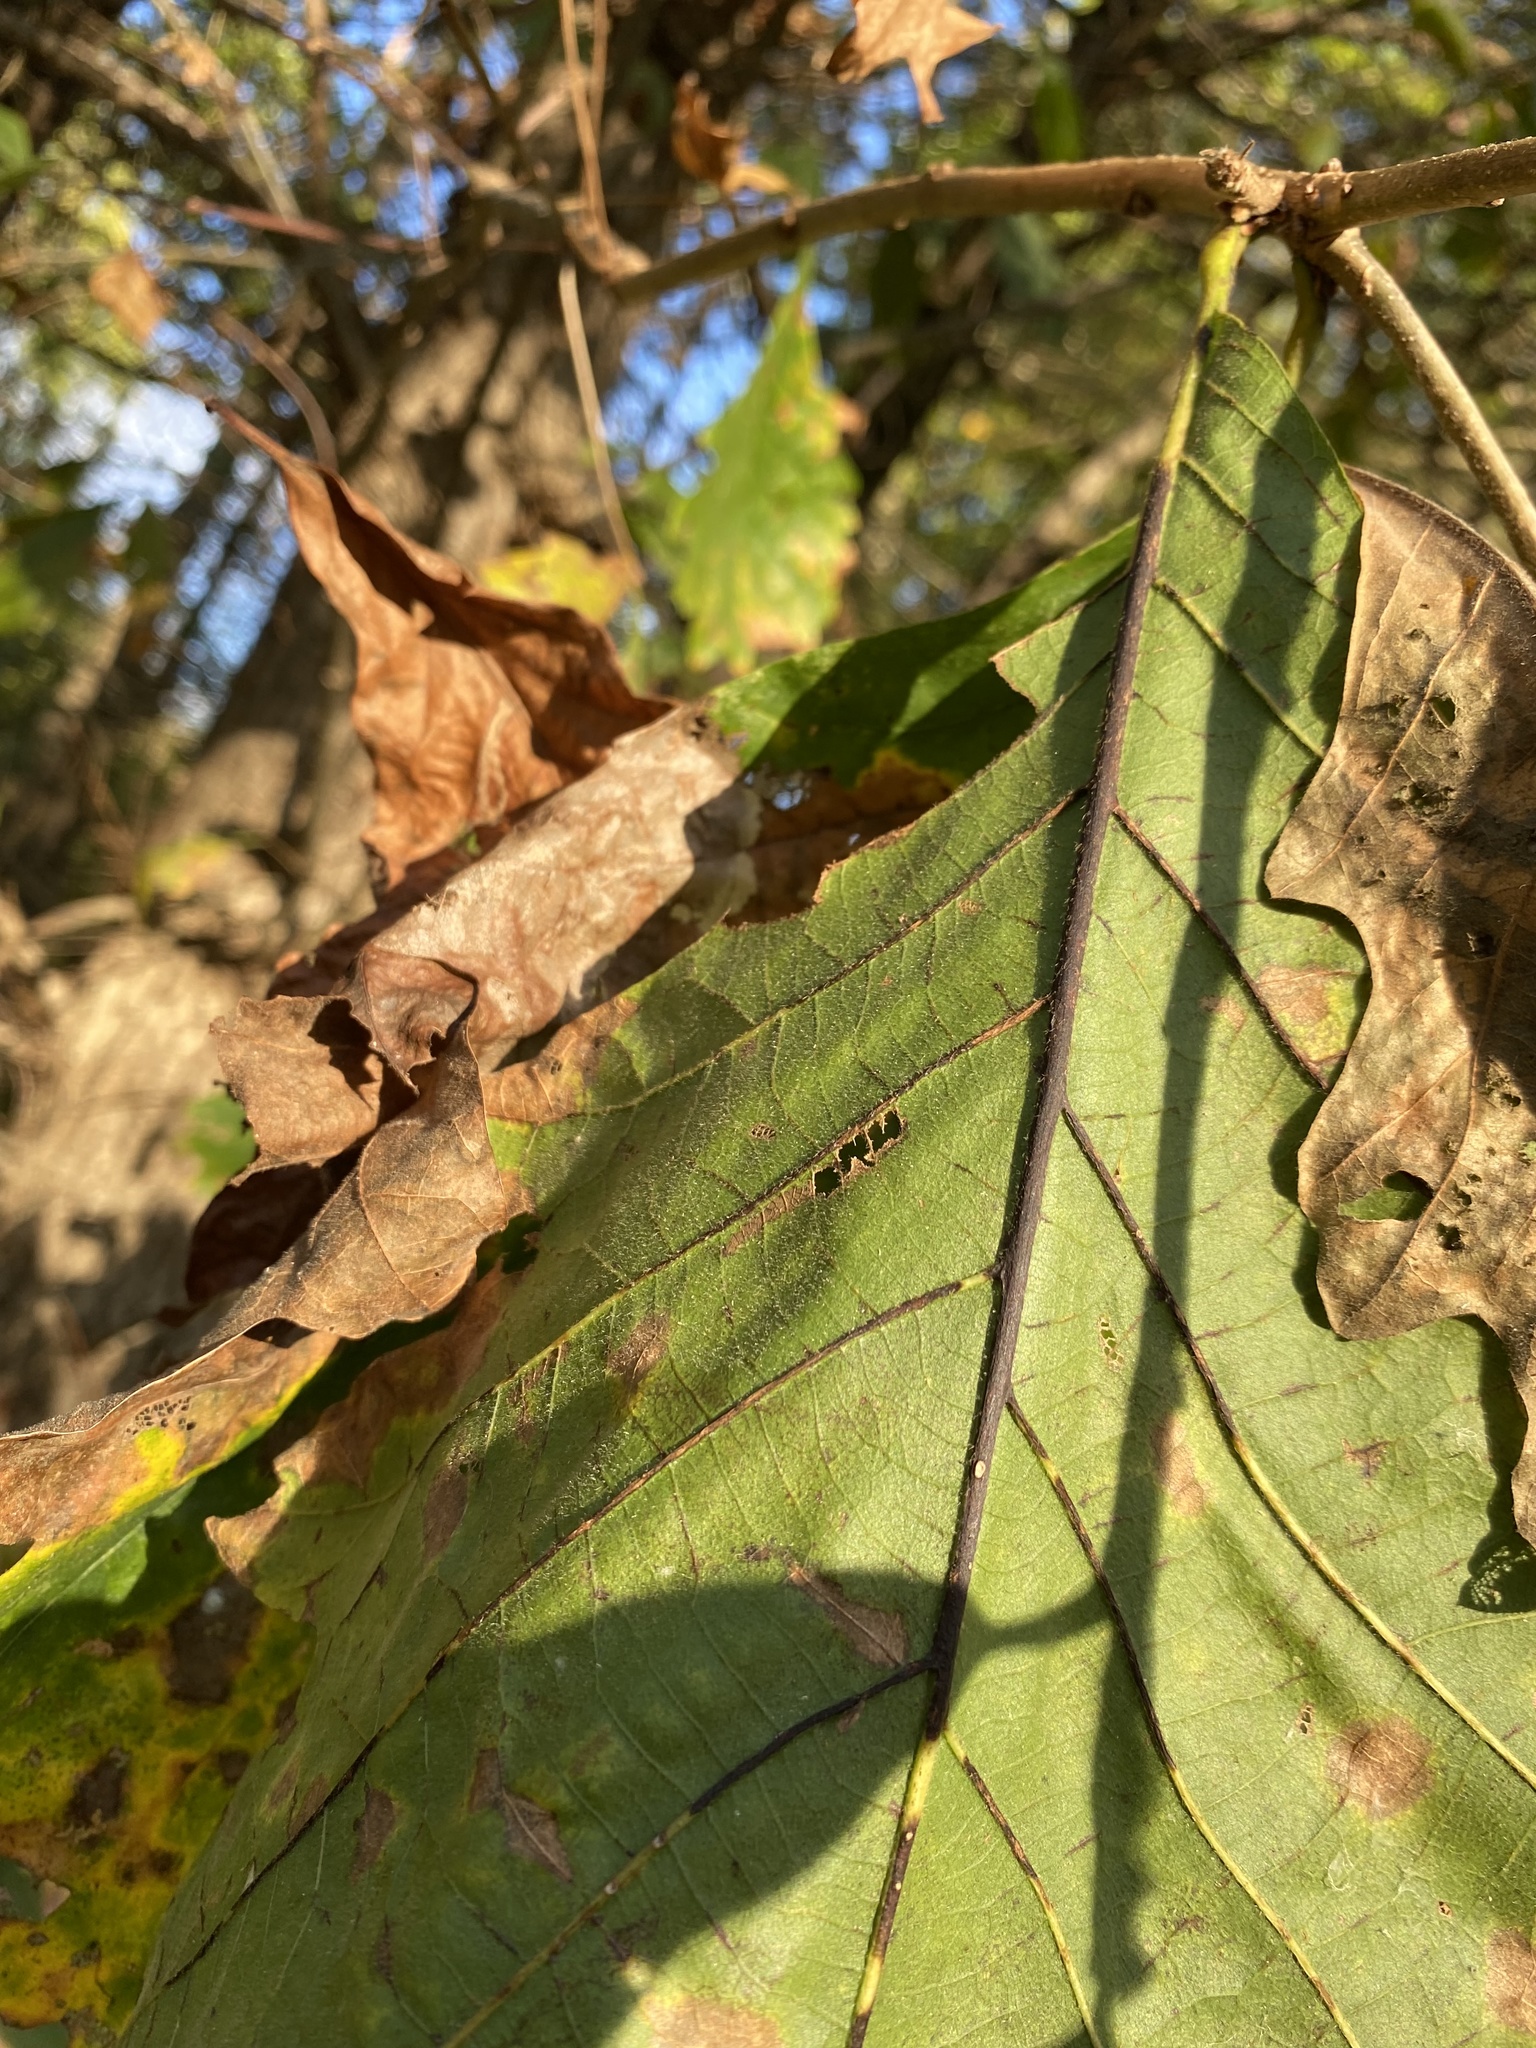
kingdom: Plantae
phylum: Tracheophyta
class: Magnoliopsida
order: Fagales
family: Fagaceae
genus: Quercus
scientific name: Quercus michauxii
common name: Swamp chestnut oak
